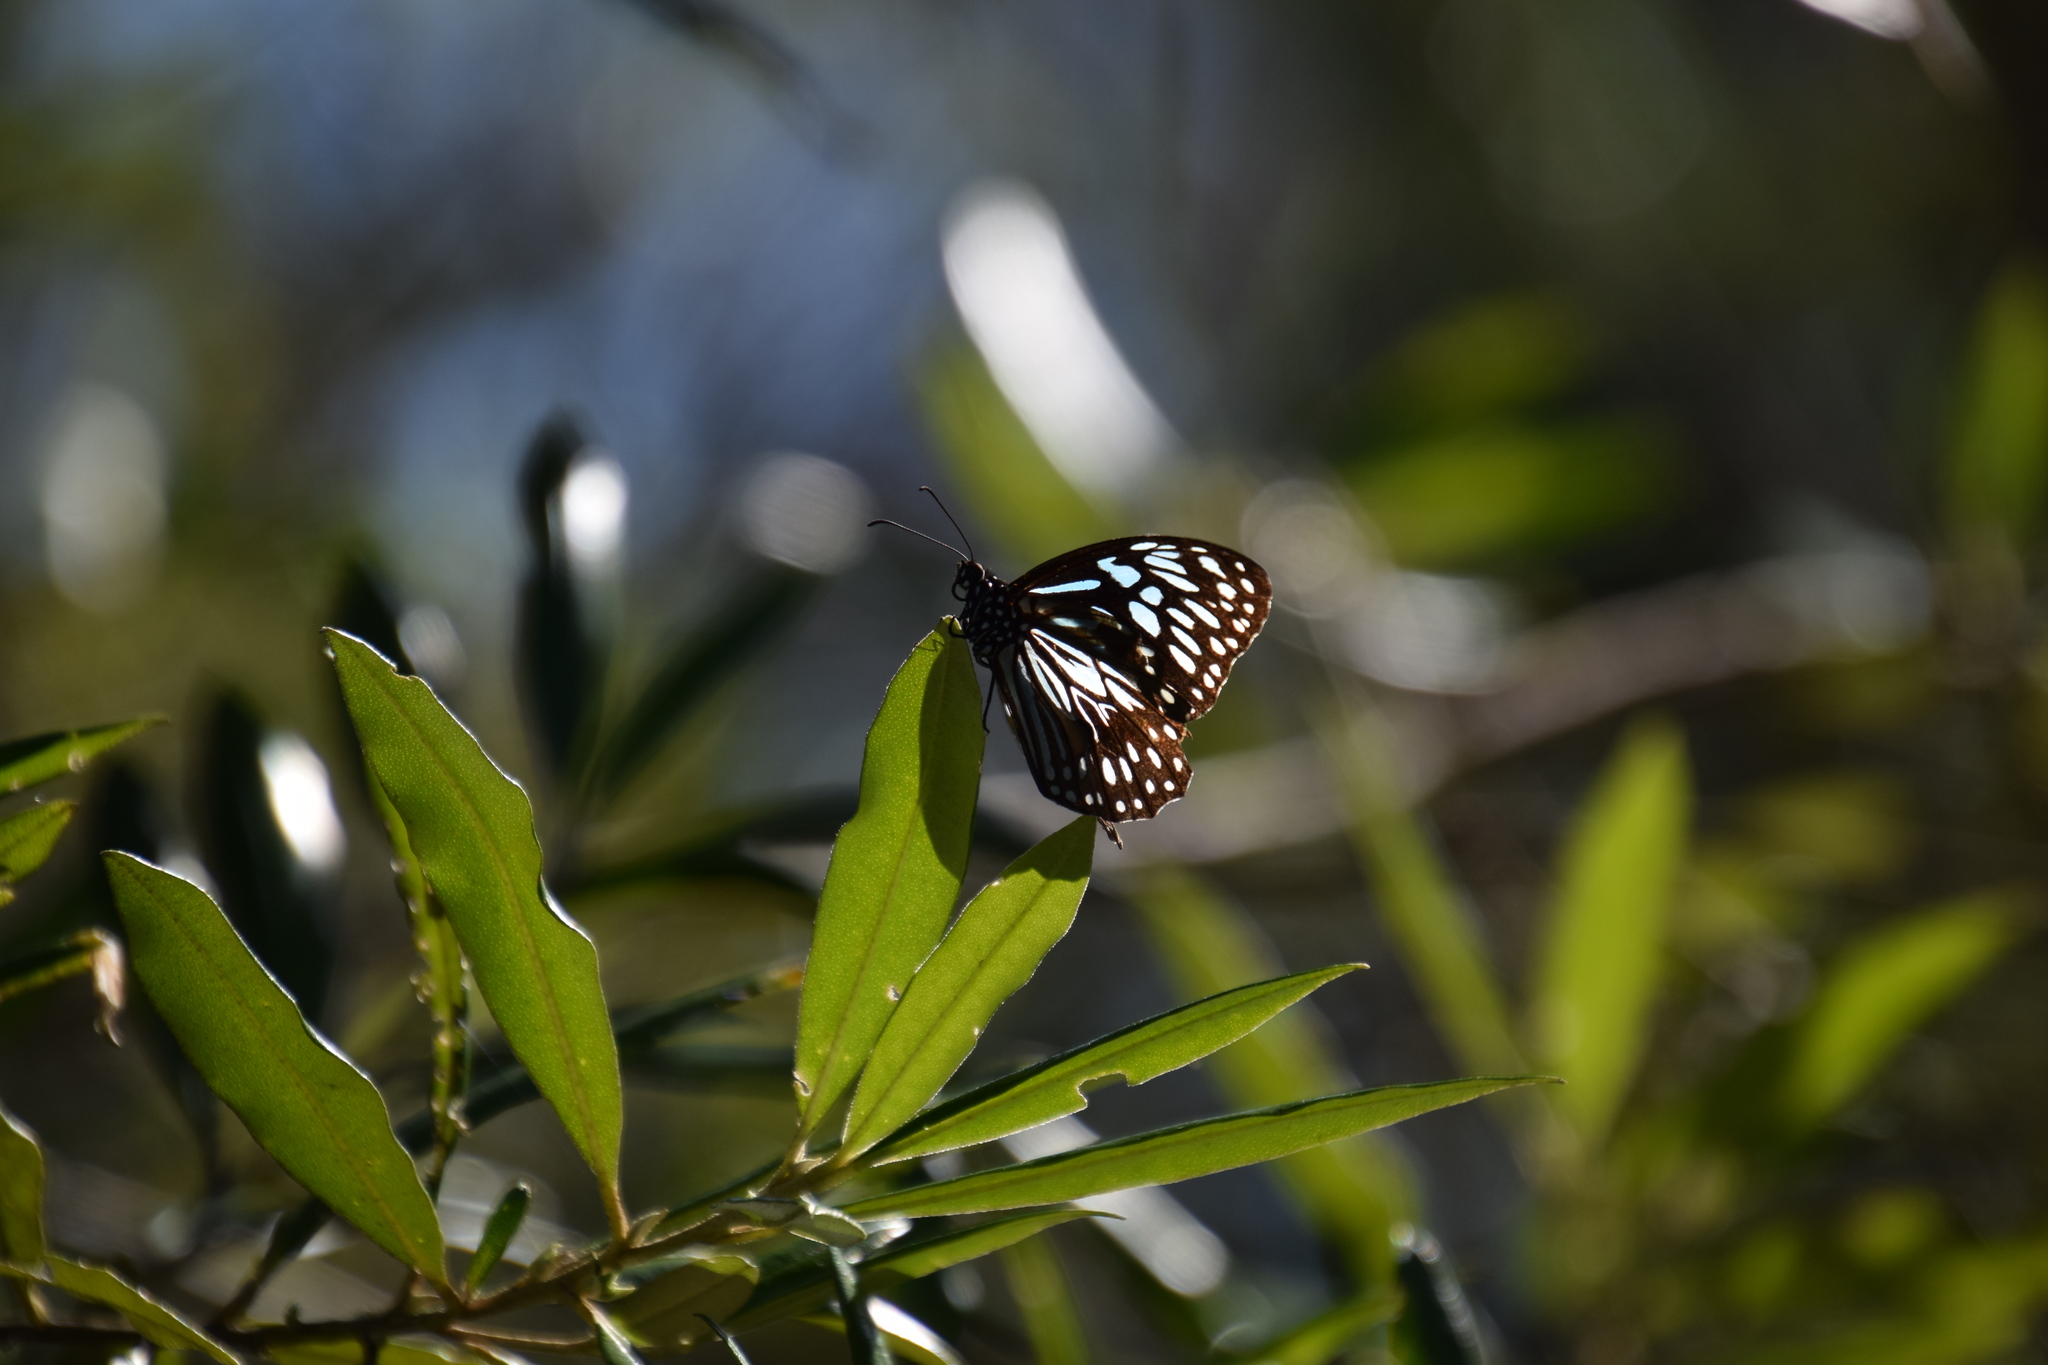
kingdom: Animalia
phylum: Arthropoda
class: Insecta
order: Lepidoptera
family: Nymphalidae
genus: Tirumala
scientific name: Tirumala hamata
